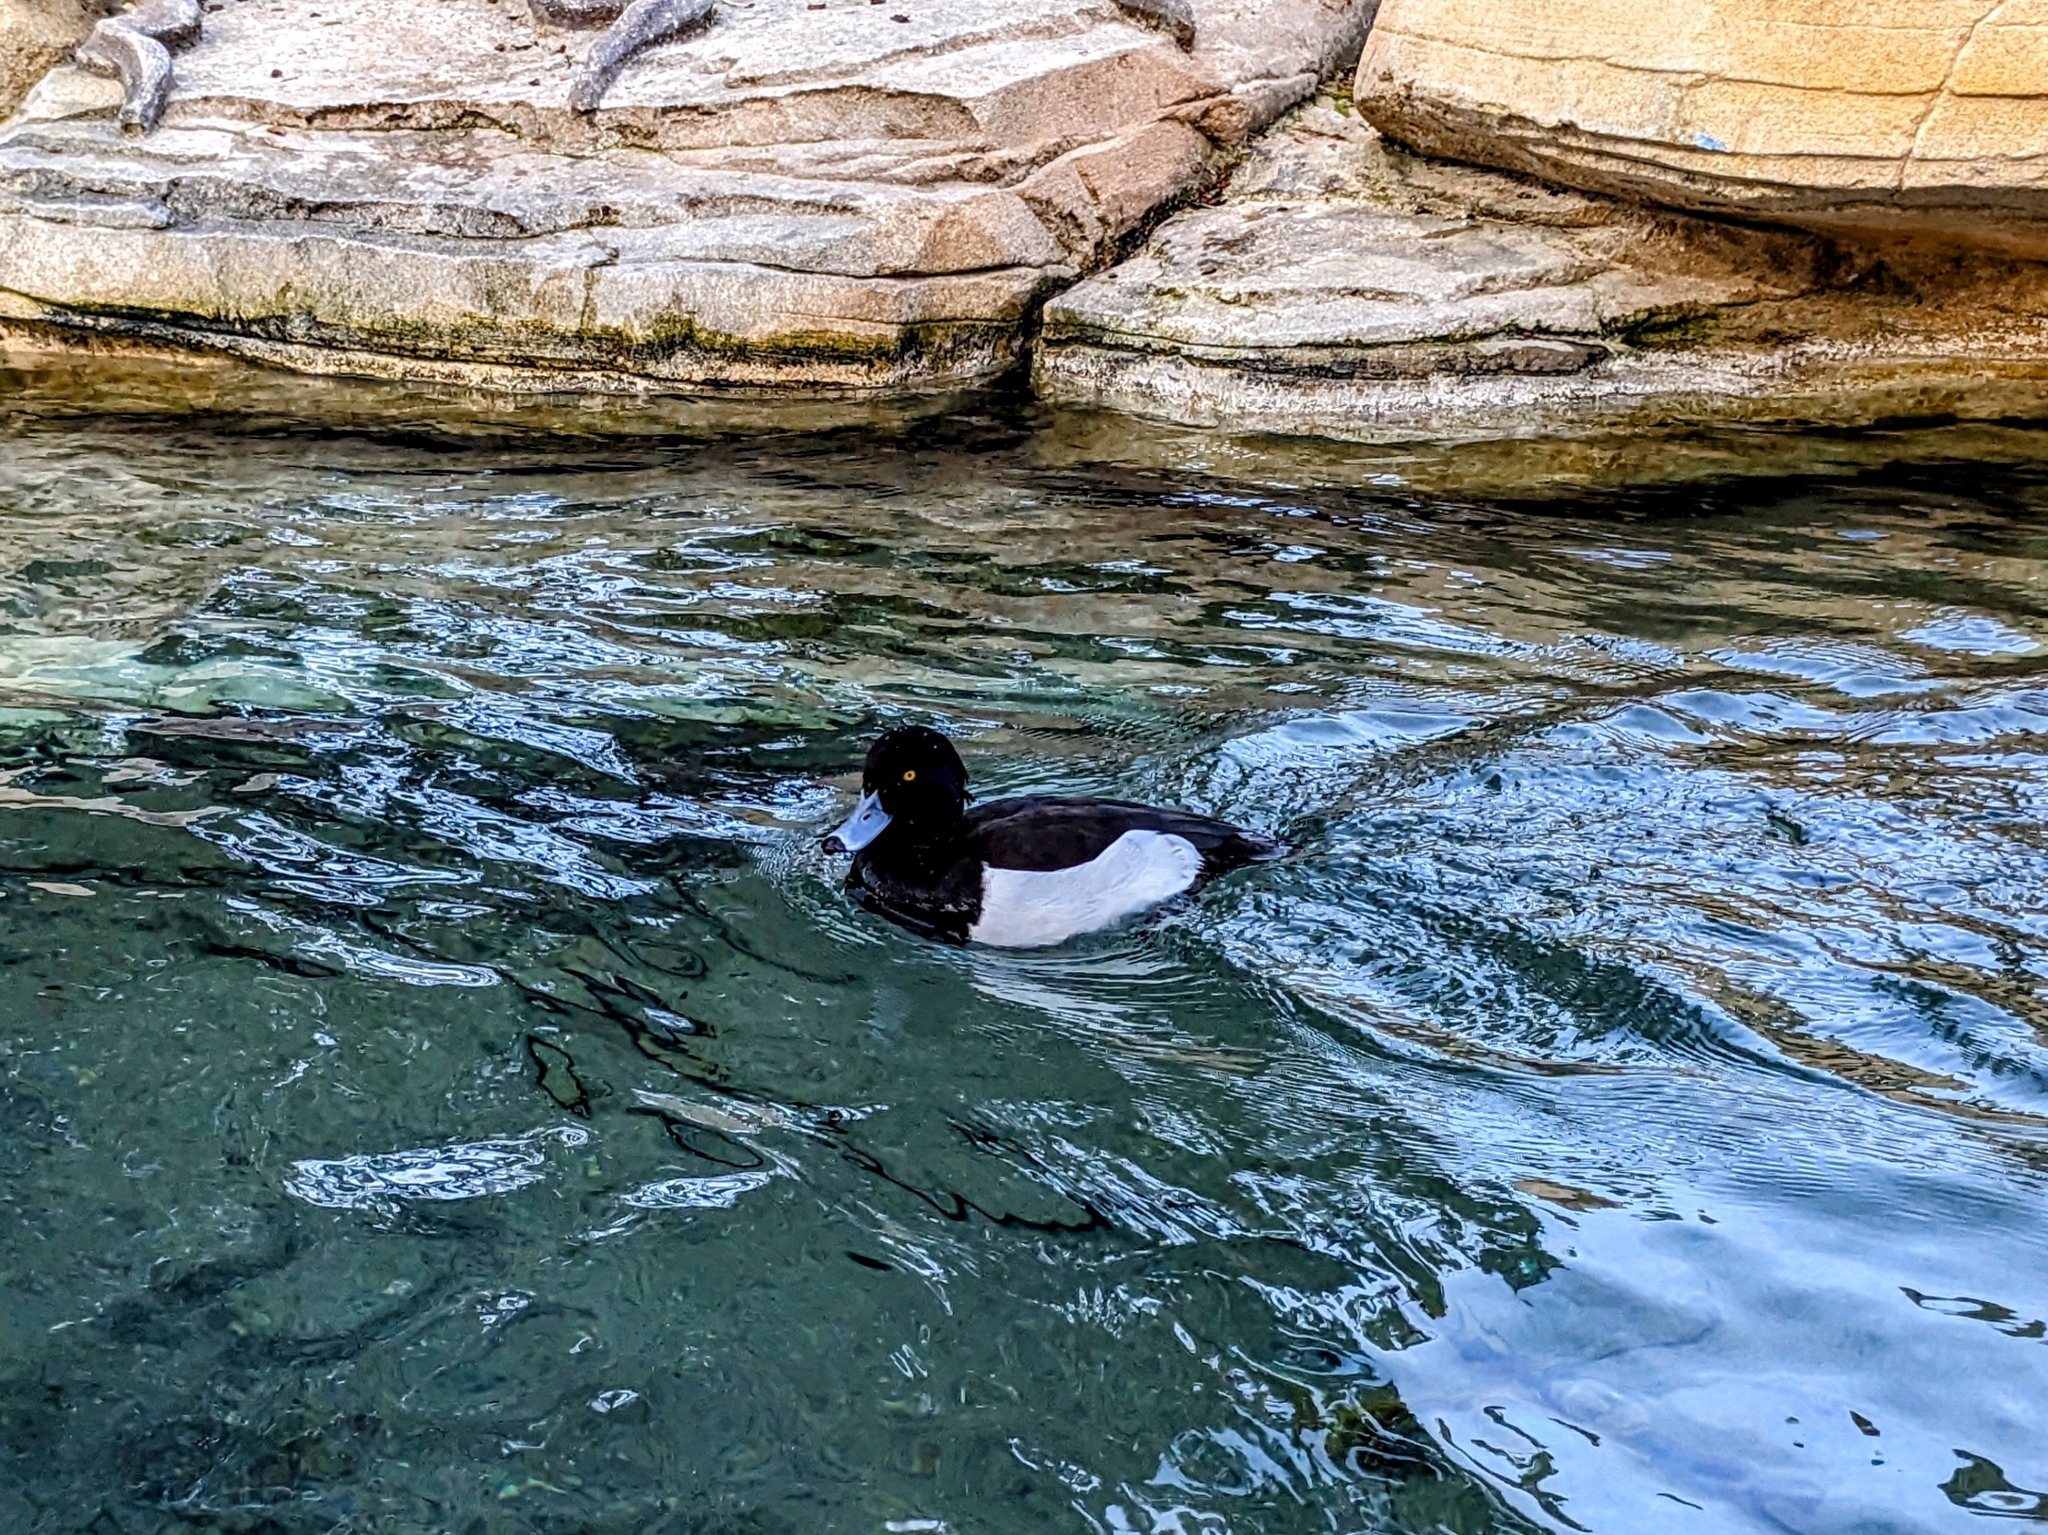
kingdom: Animalia
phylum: Chordata
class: Aves
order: Anseriformes
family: Anatidae
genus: Aythya
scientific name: Aythya fuligula
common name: Tufted duck
